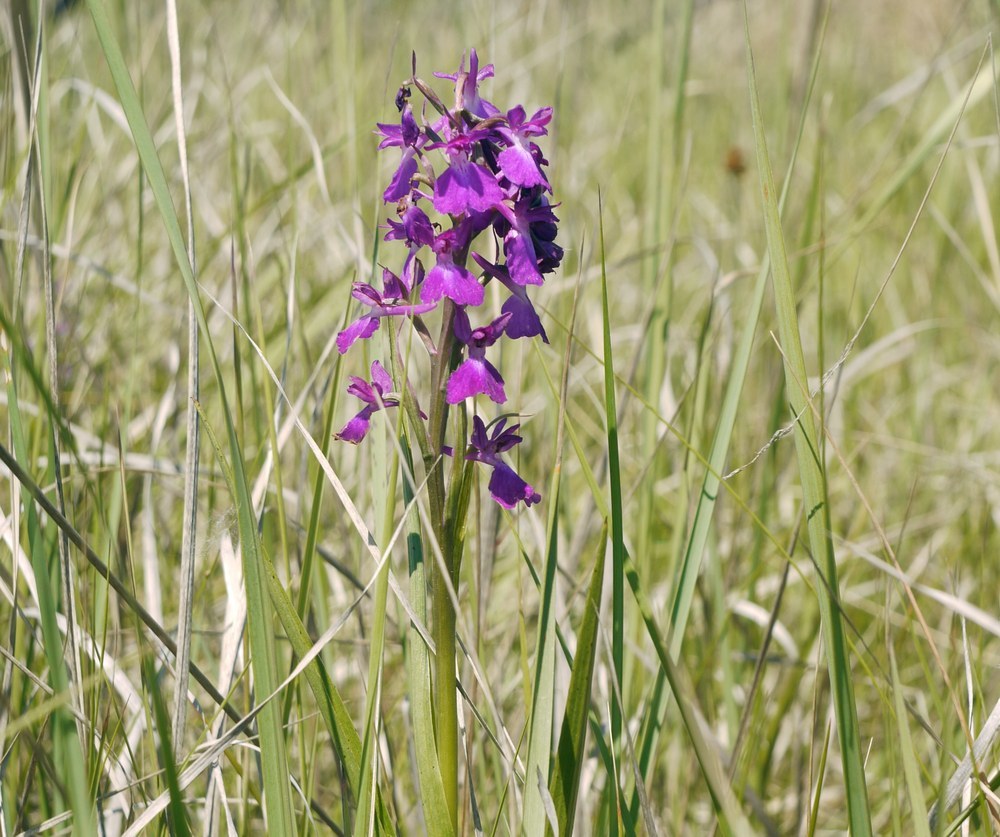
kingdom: Plantae
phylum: Tracheophyta
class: Liliopsida
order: Asparagales
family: Orchidaceae
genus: Anacamptis
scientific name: Anacamptis palustris
